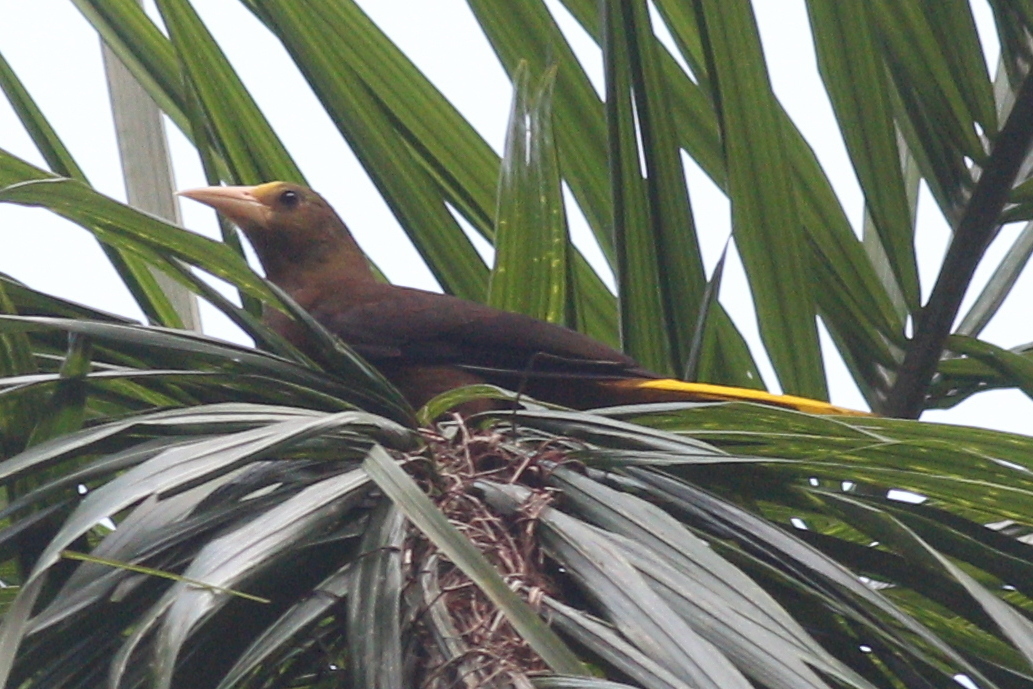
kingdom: Animalia
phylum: Chordata
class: Aves
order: Passeriformes
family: Icteridae
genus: Psarocolius
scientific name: Psarocolius angustifrons
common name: Russet-backed oropendola
